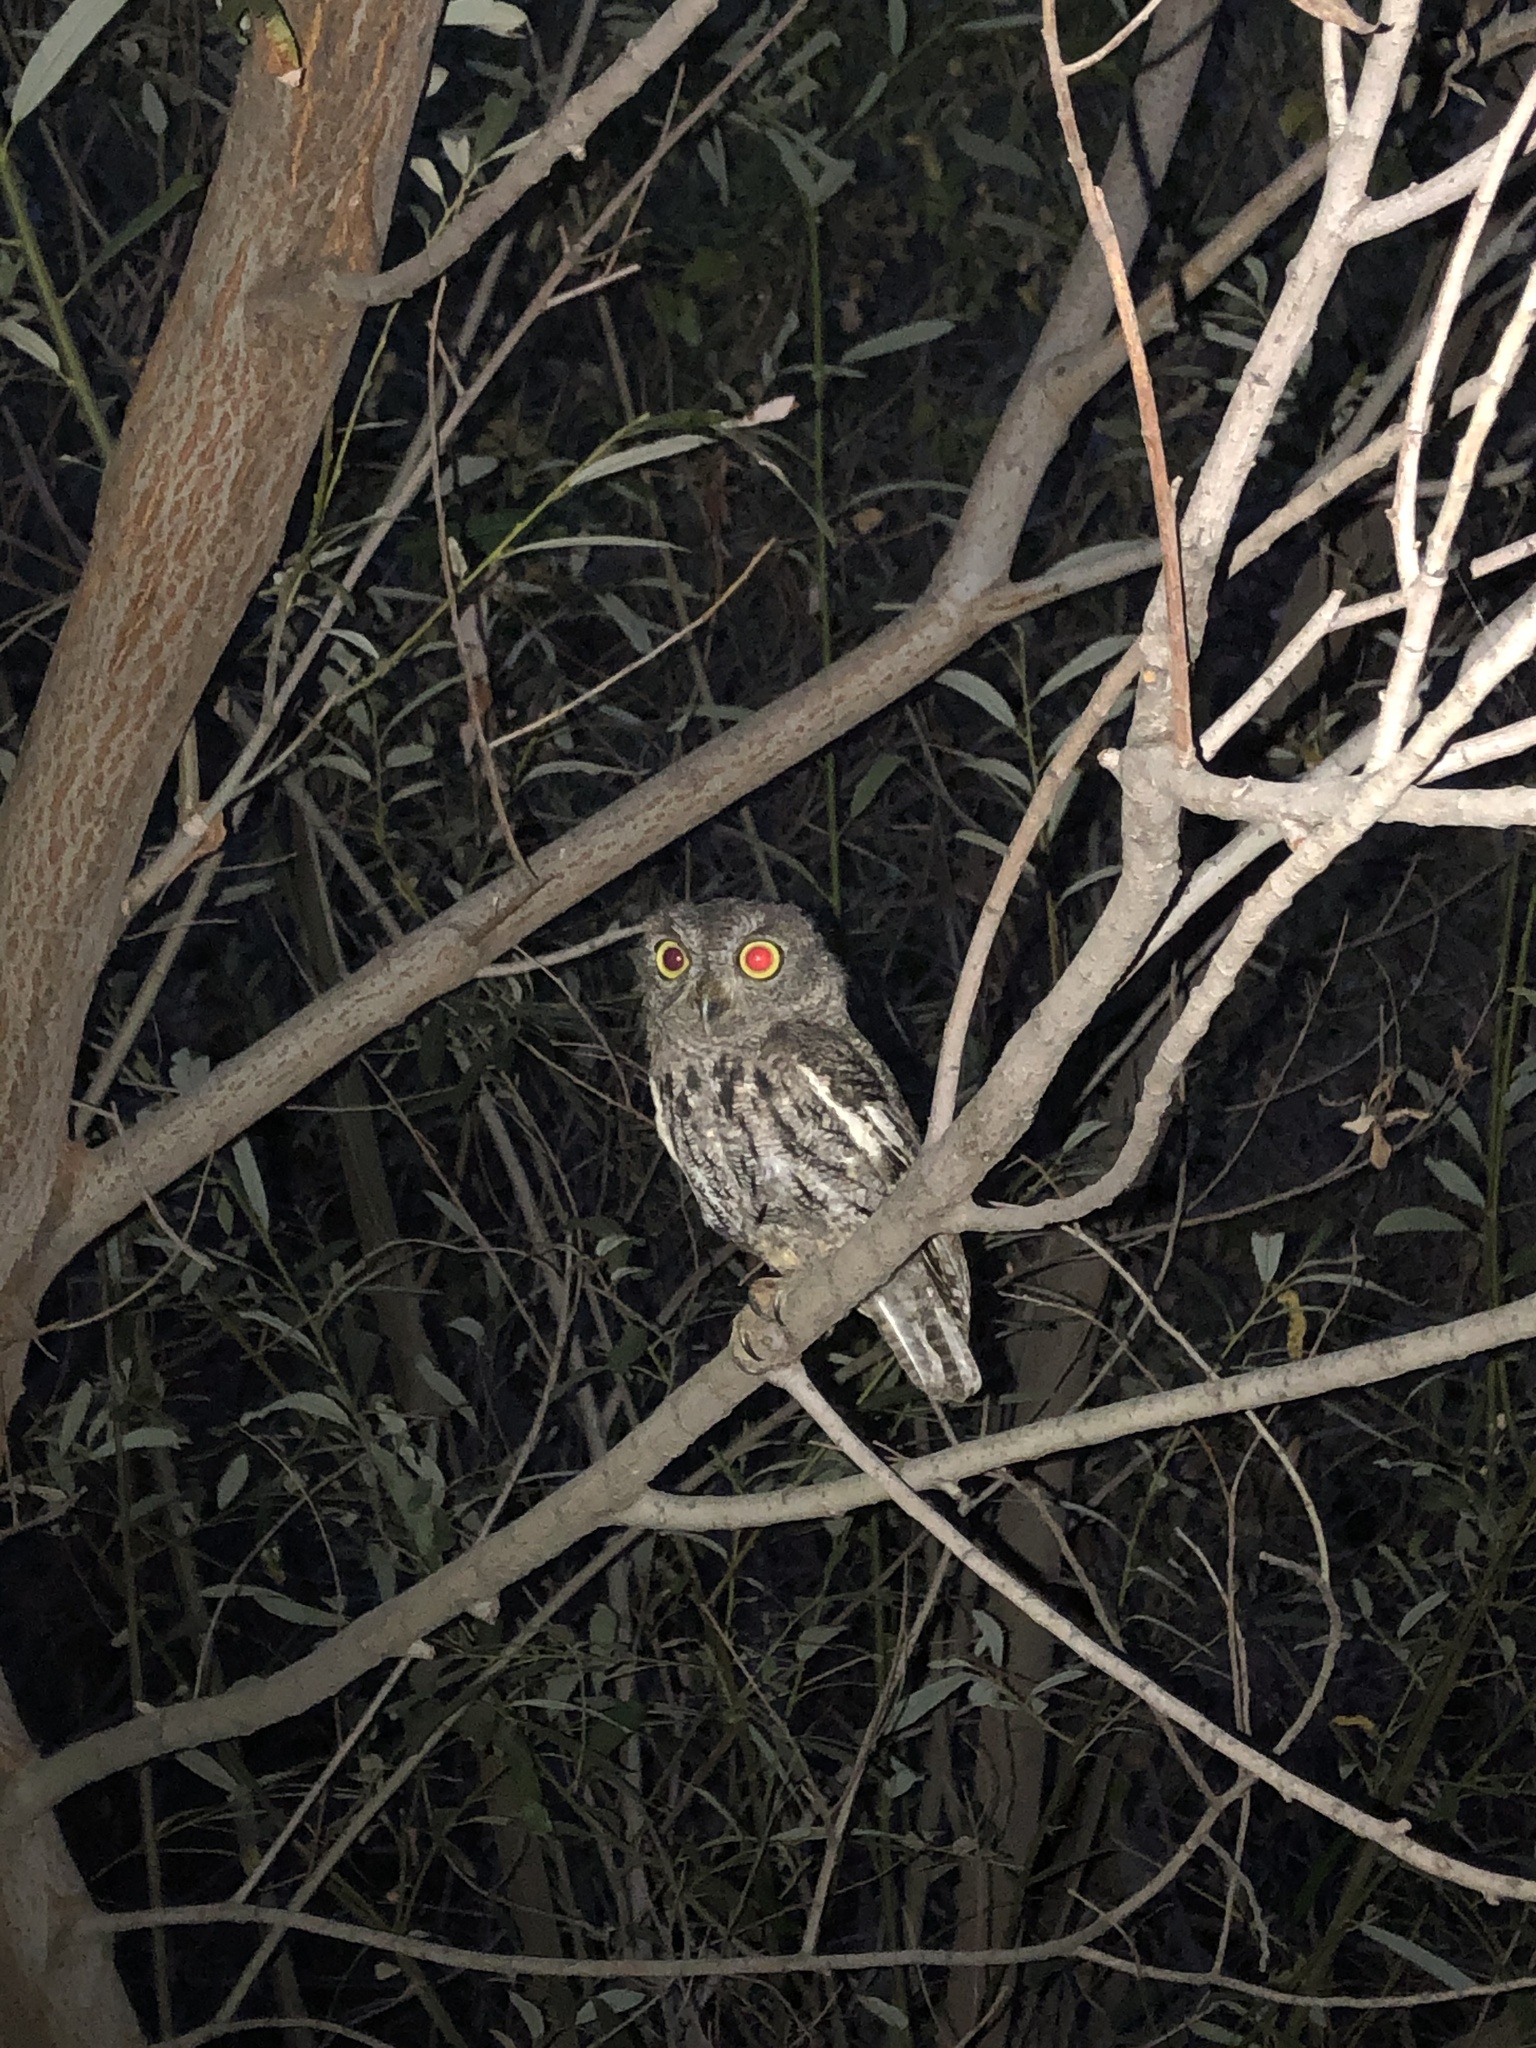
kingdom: Animalia
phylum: Chordata
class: Aves
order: Strigiformes
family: Strigidae
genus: Megascops
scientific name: Megascops kennicottii
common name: Western screech-owl
